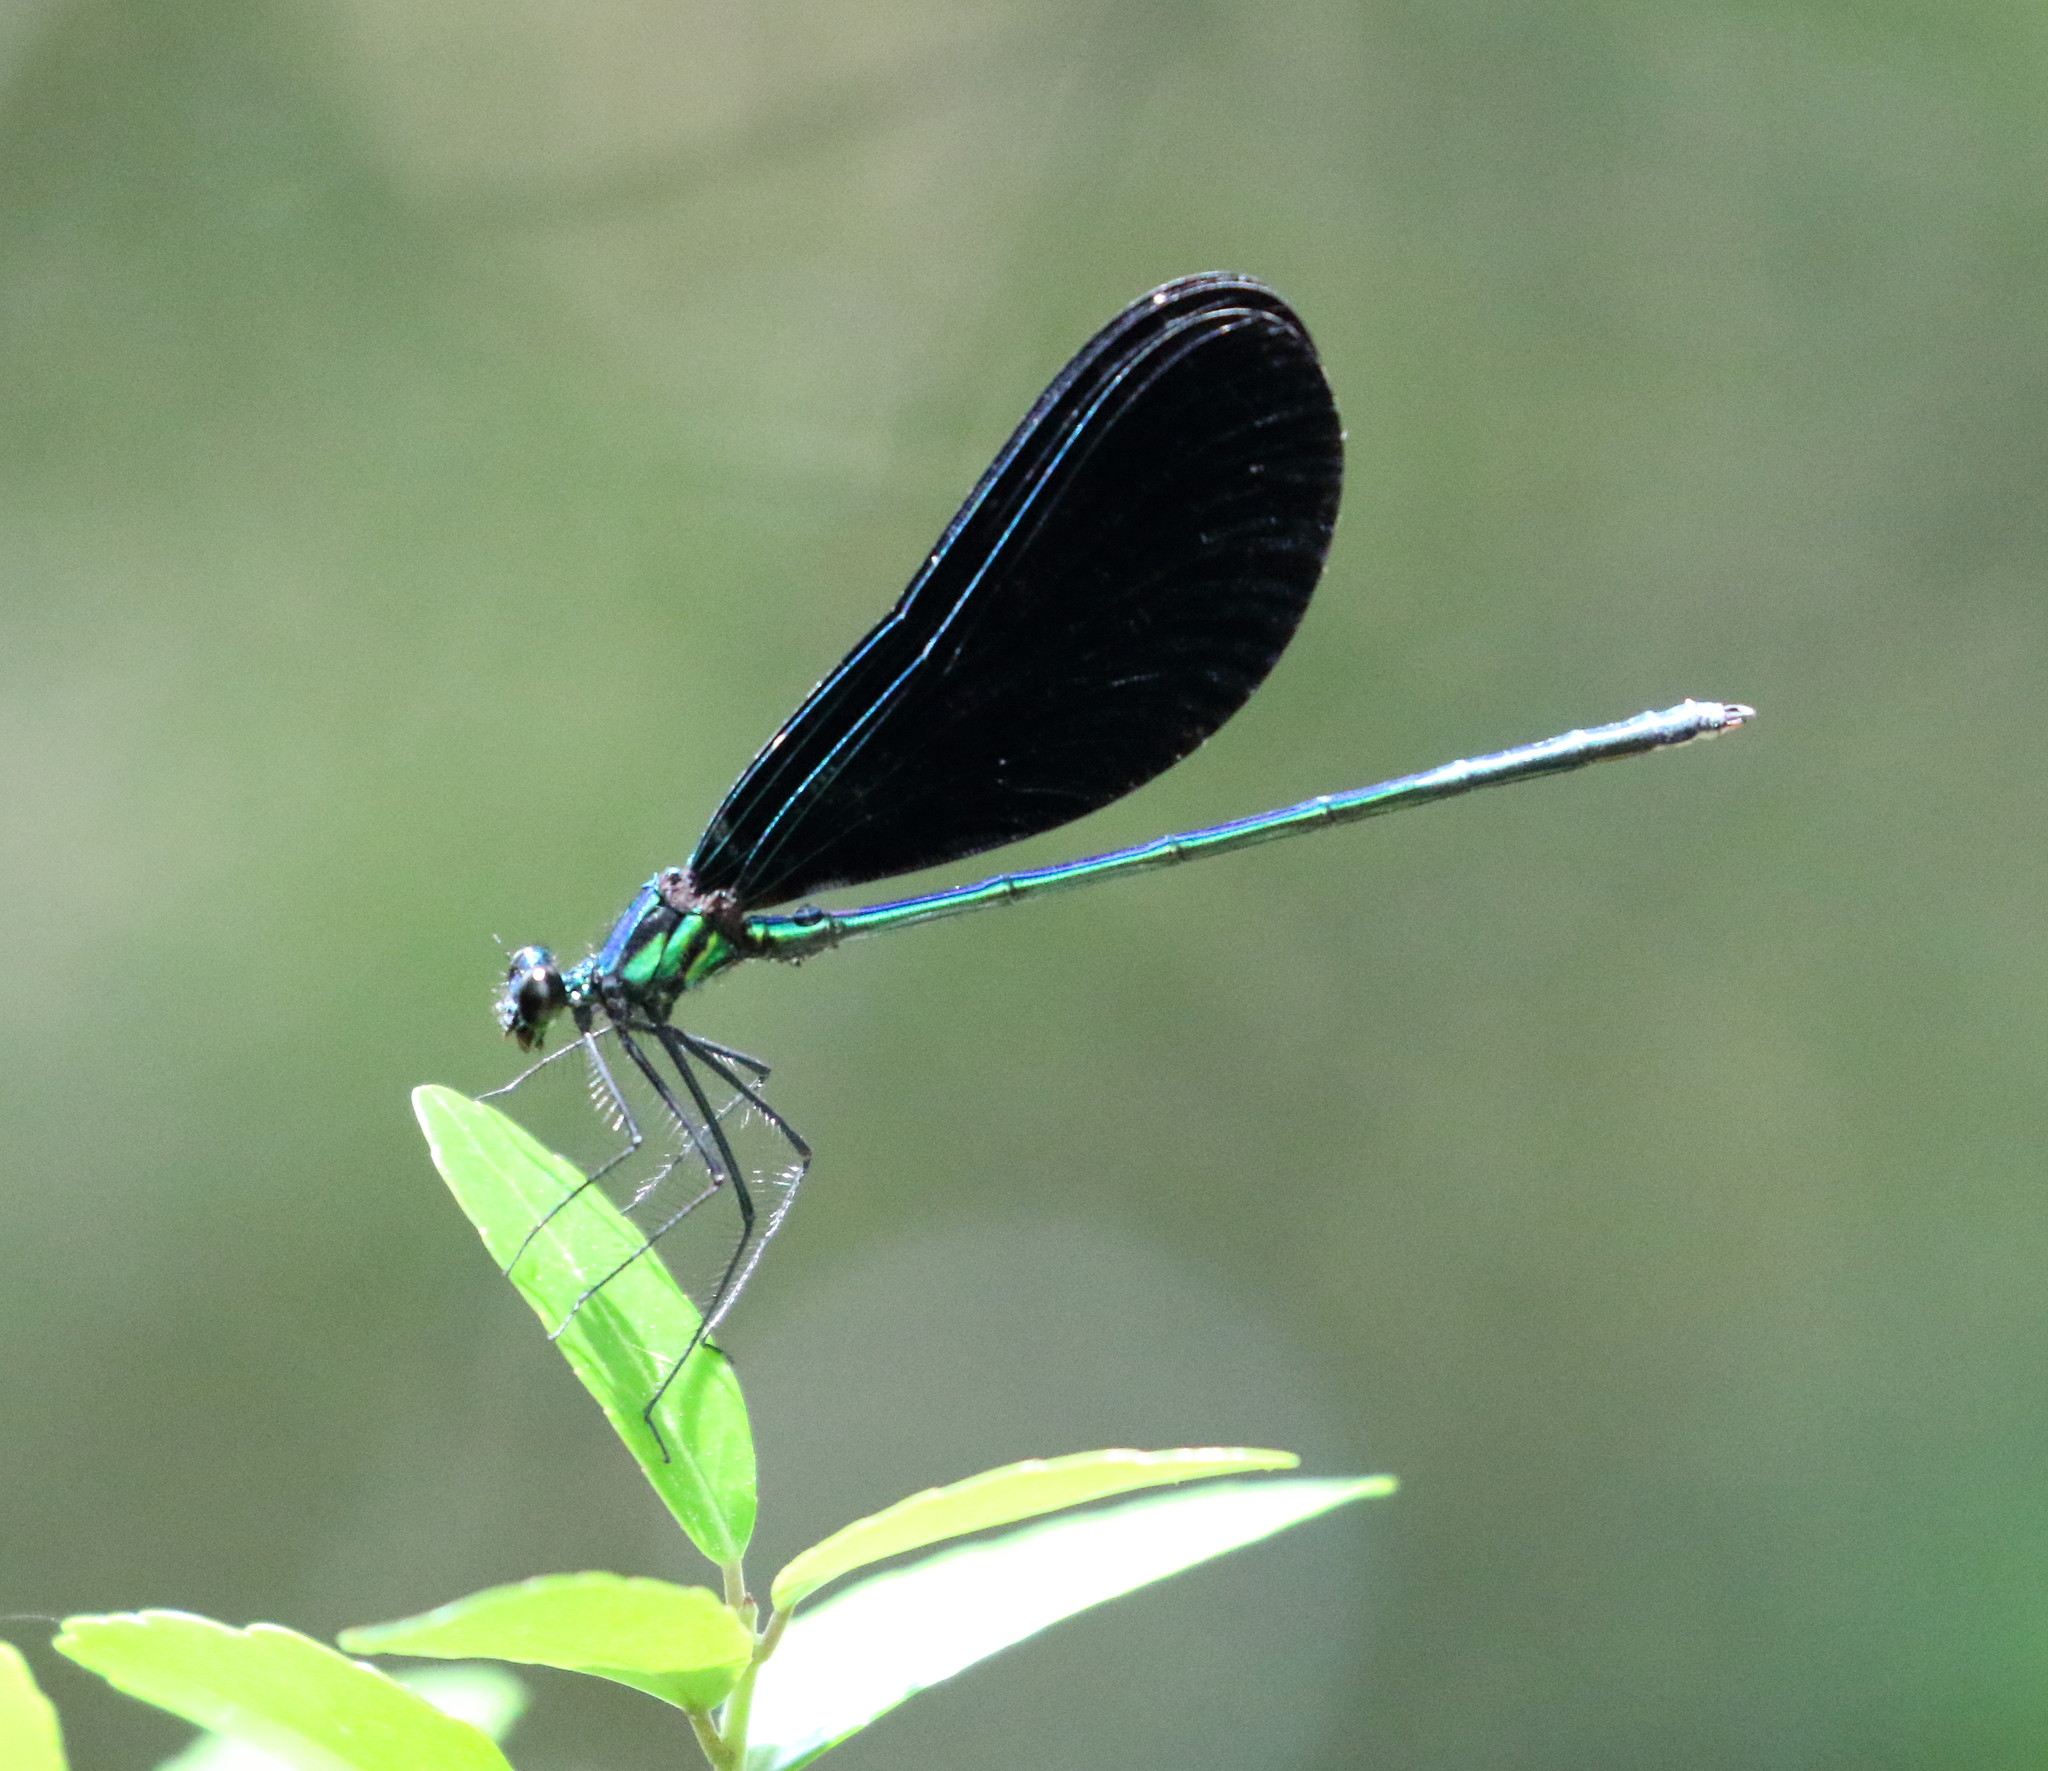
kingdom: Animalia
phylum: Arthropoda
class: Insecta
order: Odonata
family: Calopterygidae
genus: Calopteryx
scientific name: Calopteryx maculata
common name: Ebony jewelwing
